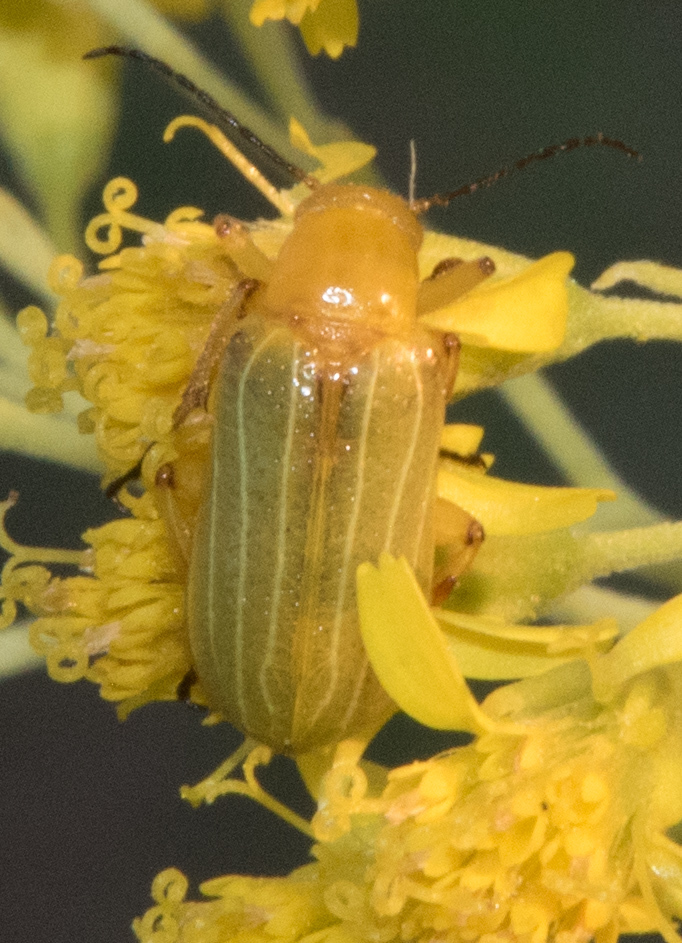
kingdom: Animalia
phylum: Arthropoda
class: Insecta
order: Coleoptera
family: Meloidae
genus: Zonitis
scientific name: Zonitis dunniana
